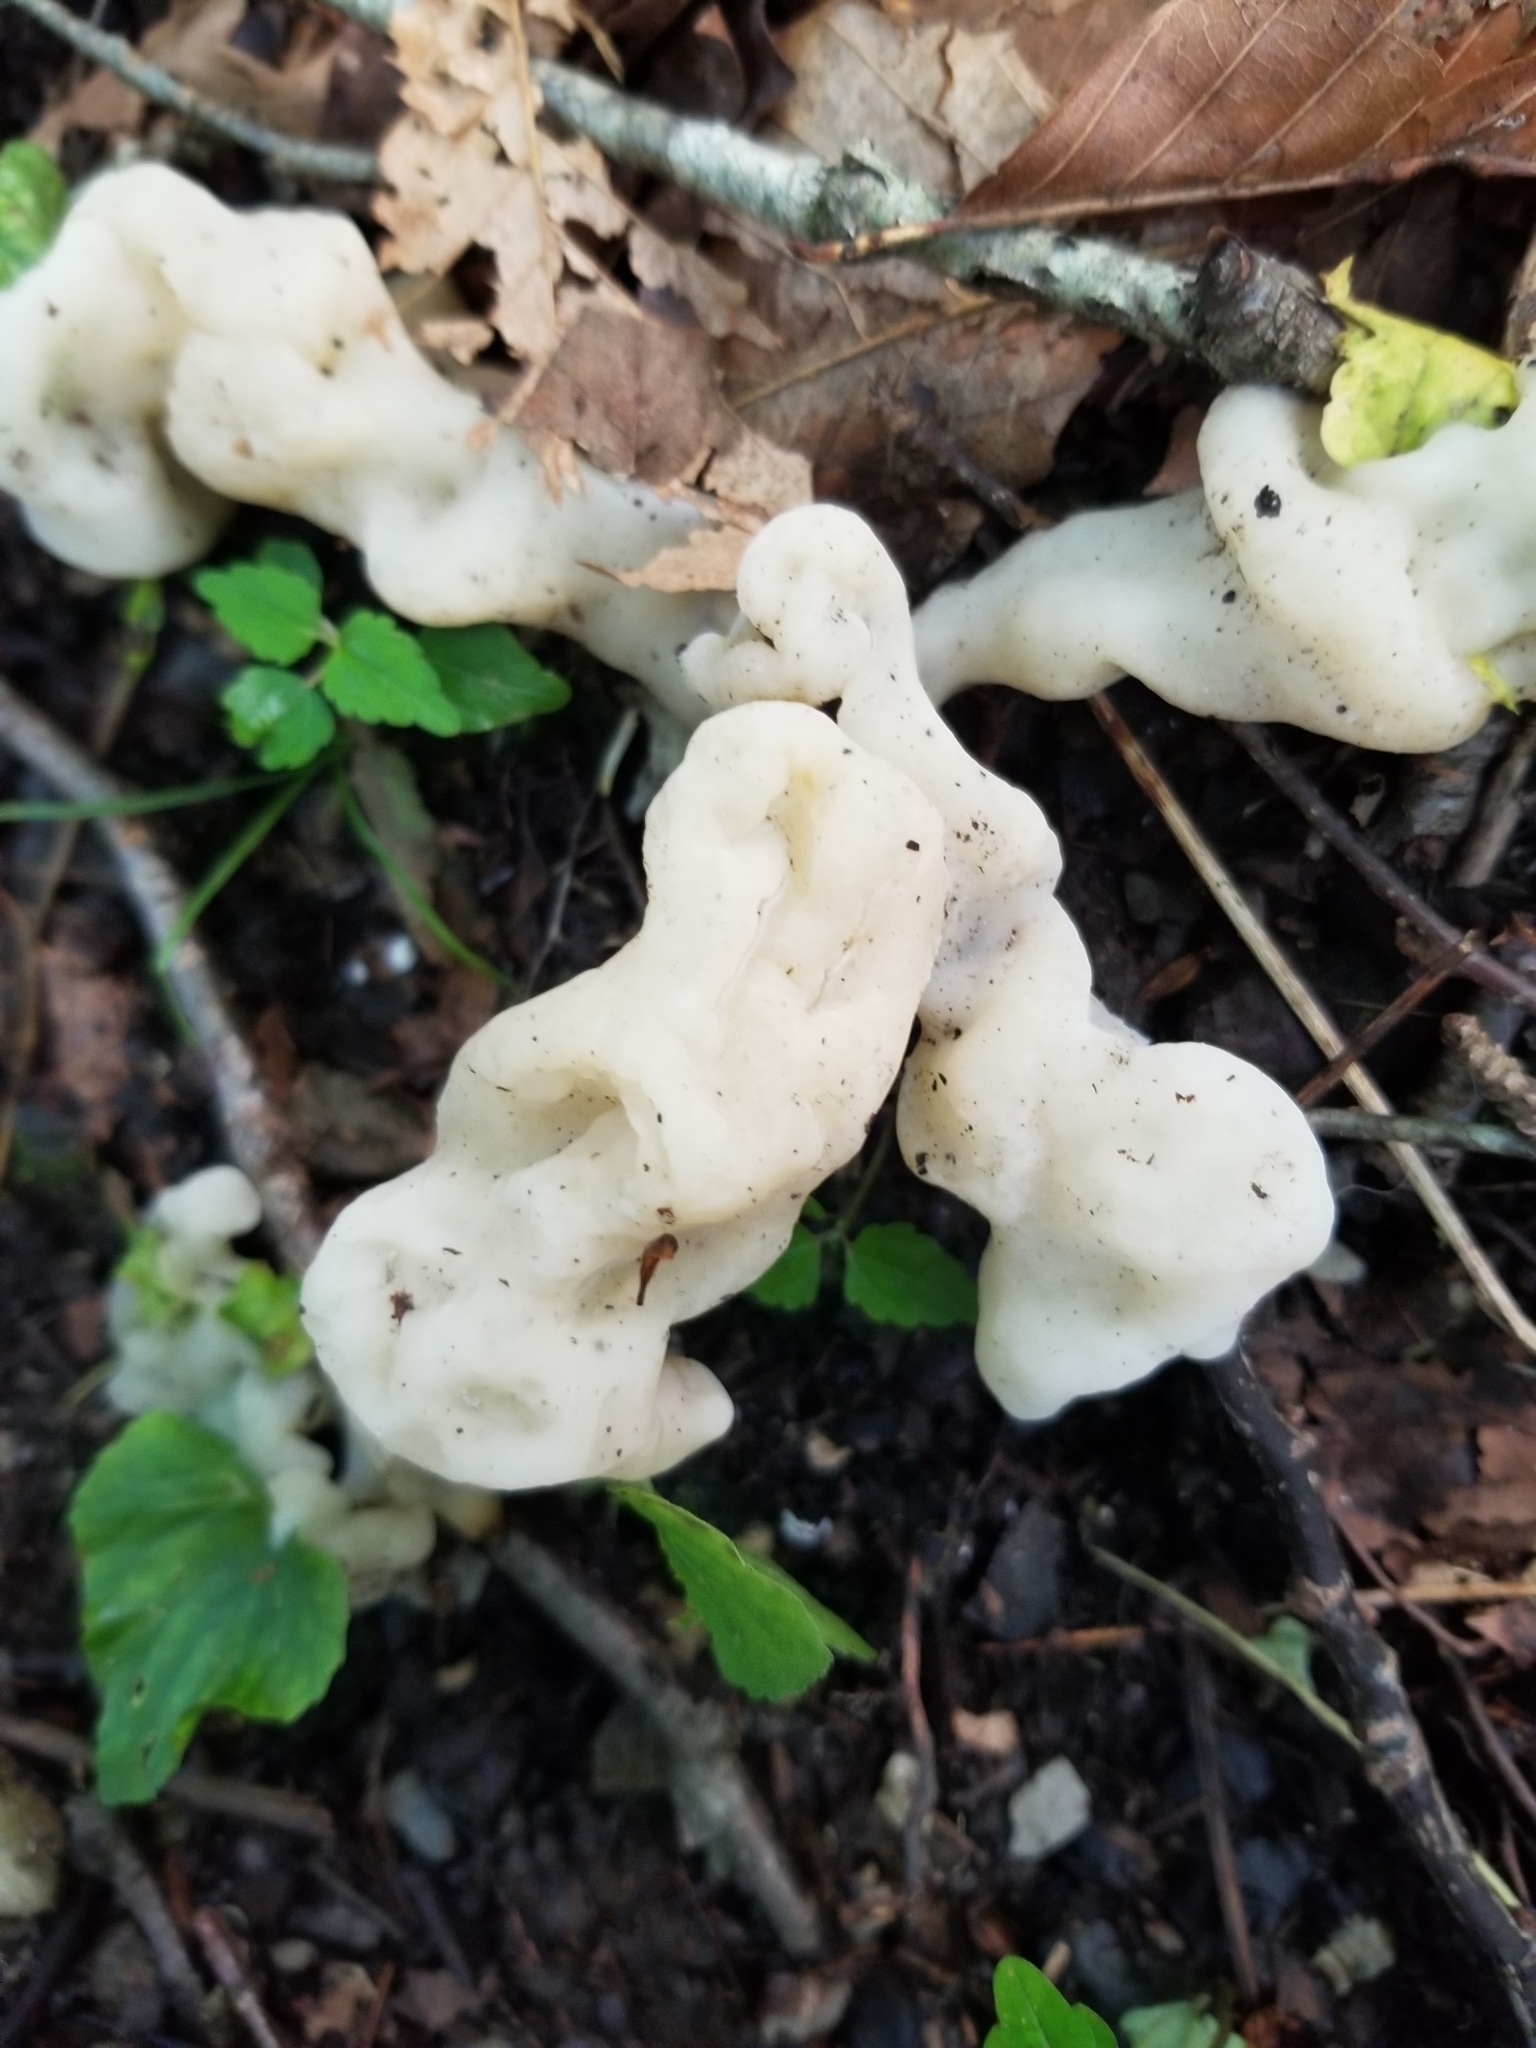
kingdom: Fungi
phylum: Basidiomycota
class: Agaricomycetes
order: Sebacinales
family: Sebacinaceae
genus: Helvellosebacina
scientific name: Helvellosebacina concrescens
